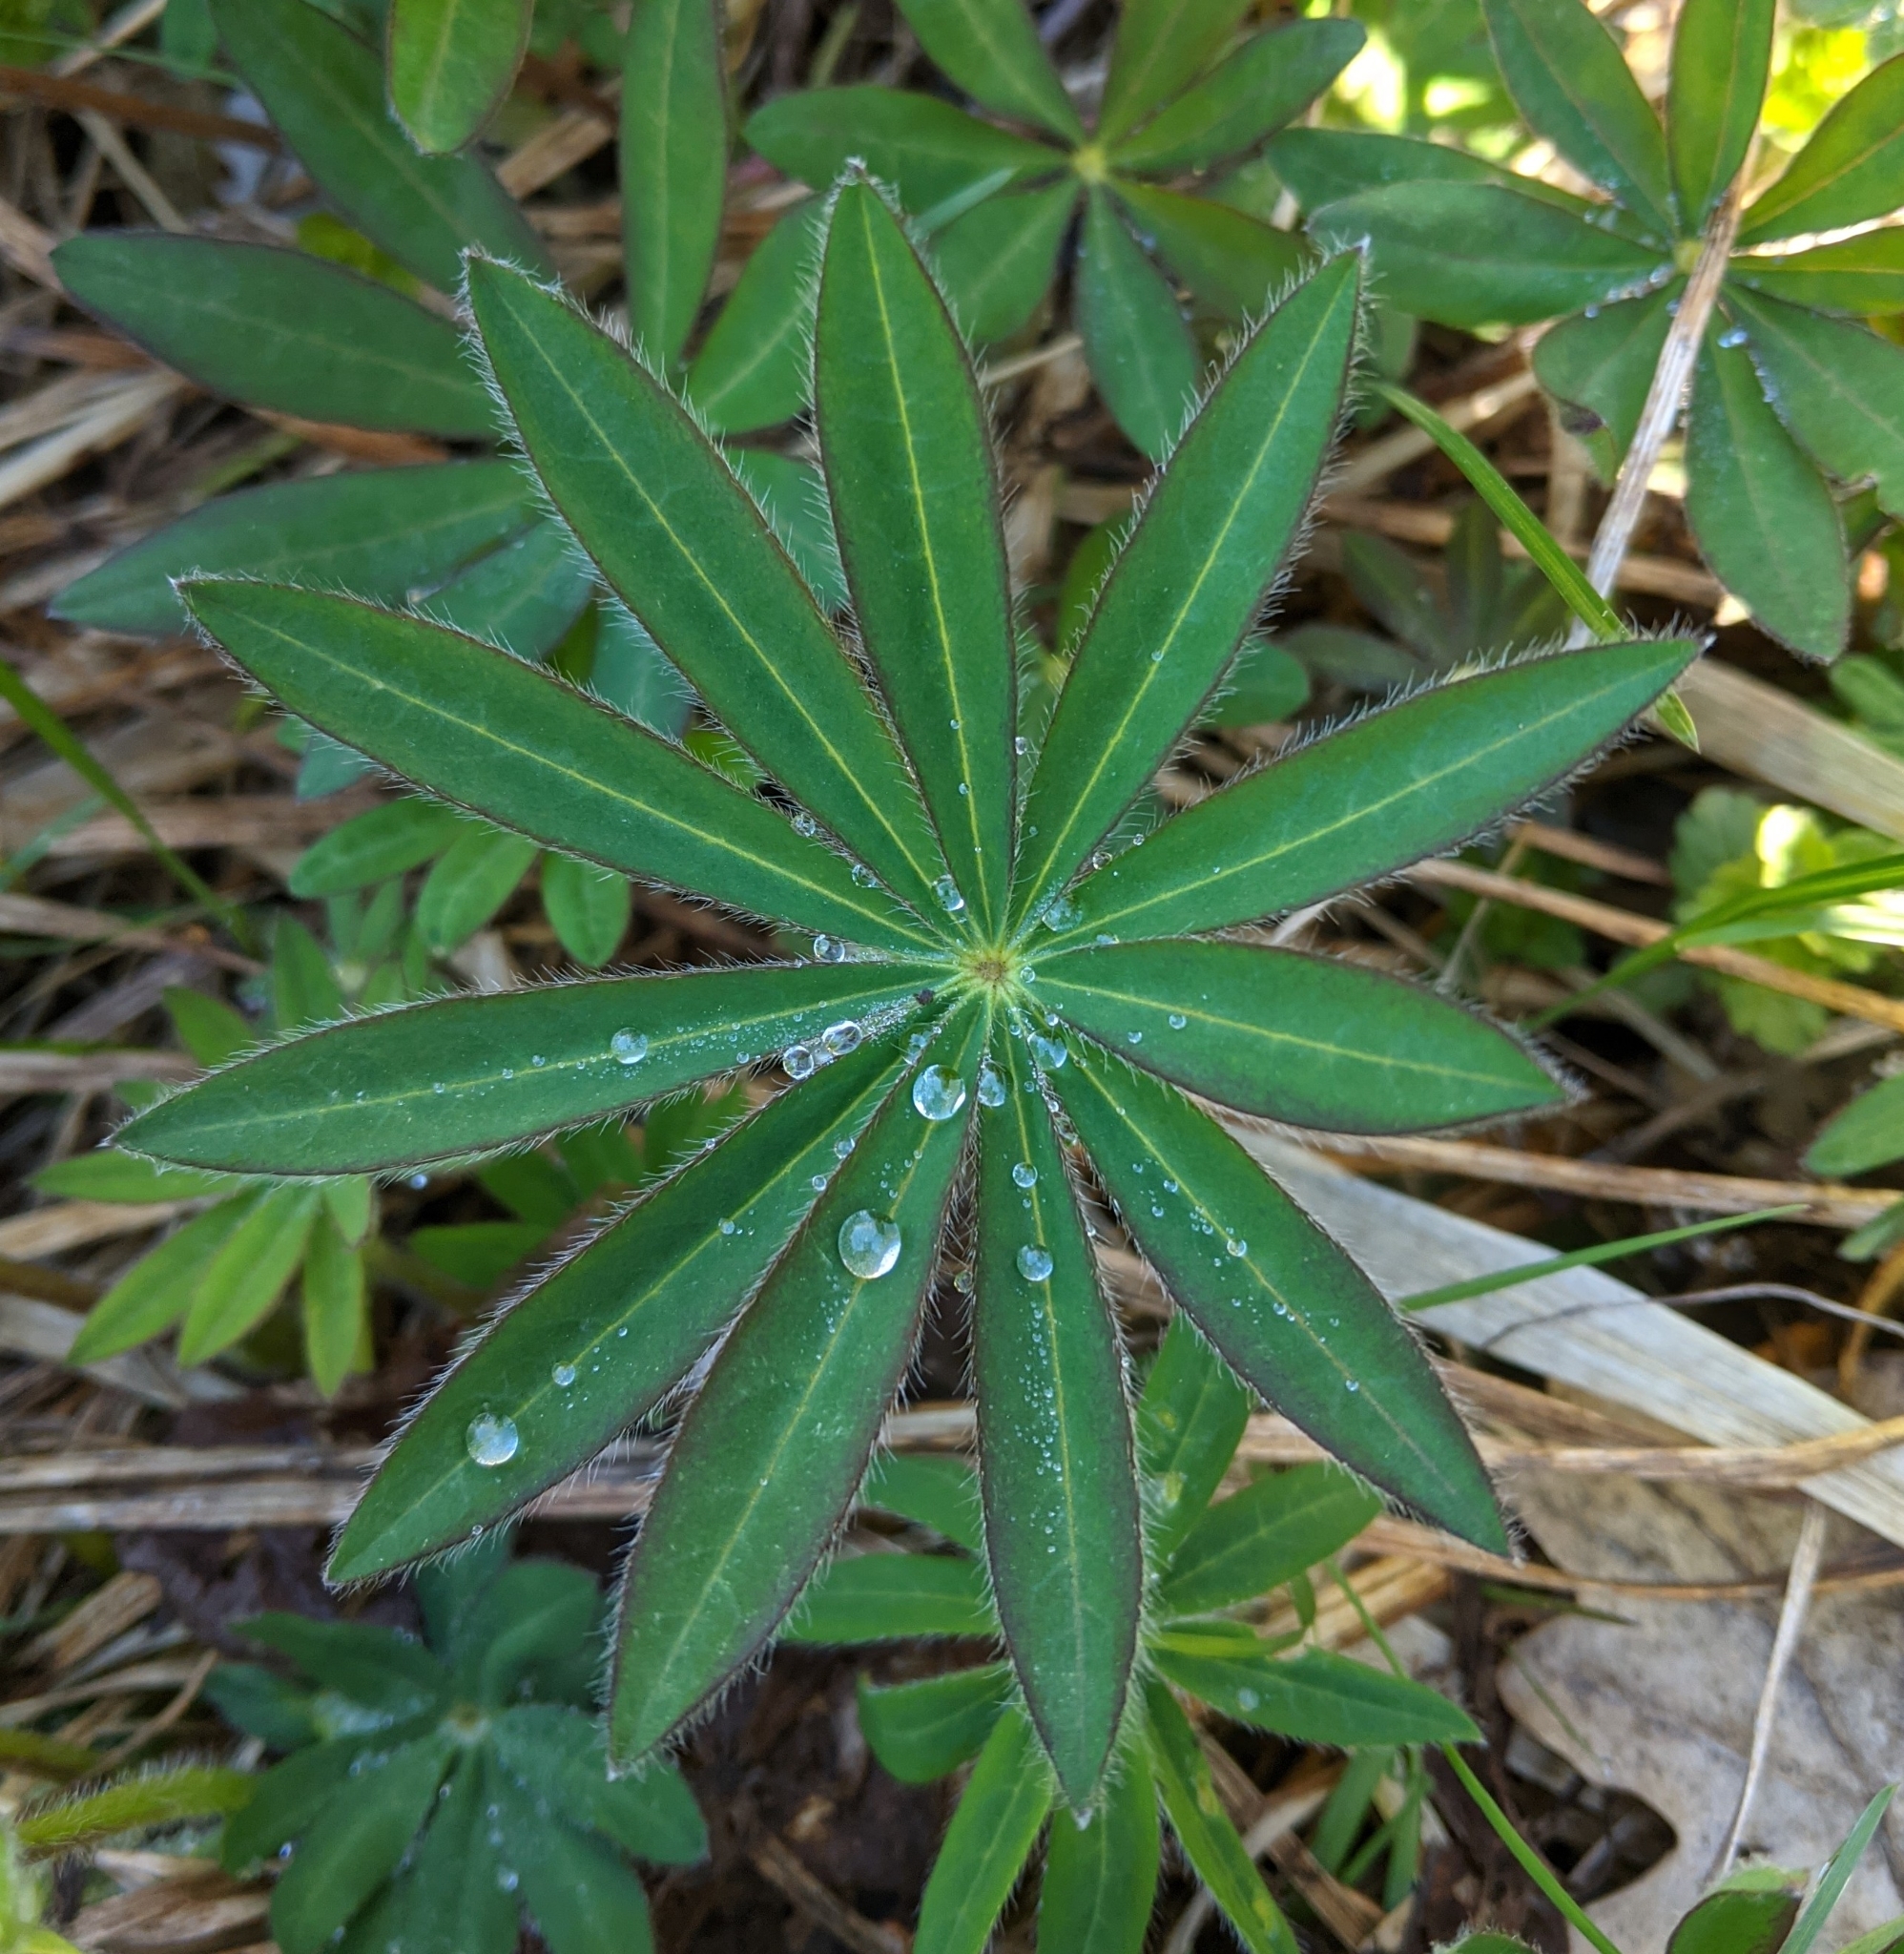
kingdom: Plantae
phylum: Tracheophyta
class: Magnoliopsida
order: Fabales
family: Fabaceae
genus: Lupinus
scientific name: Lupinus polyphyllus
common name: Garden lupin
